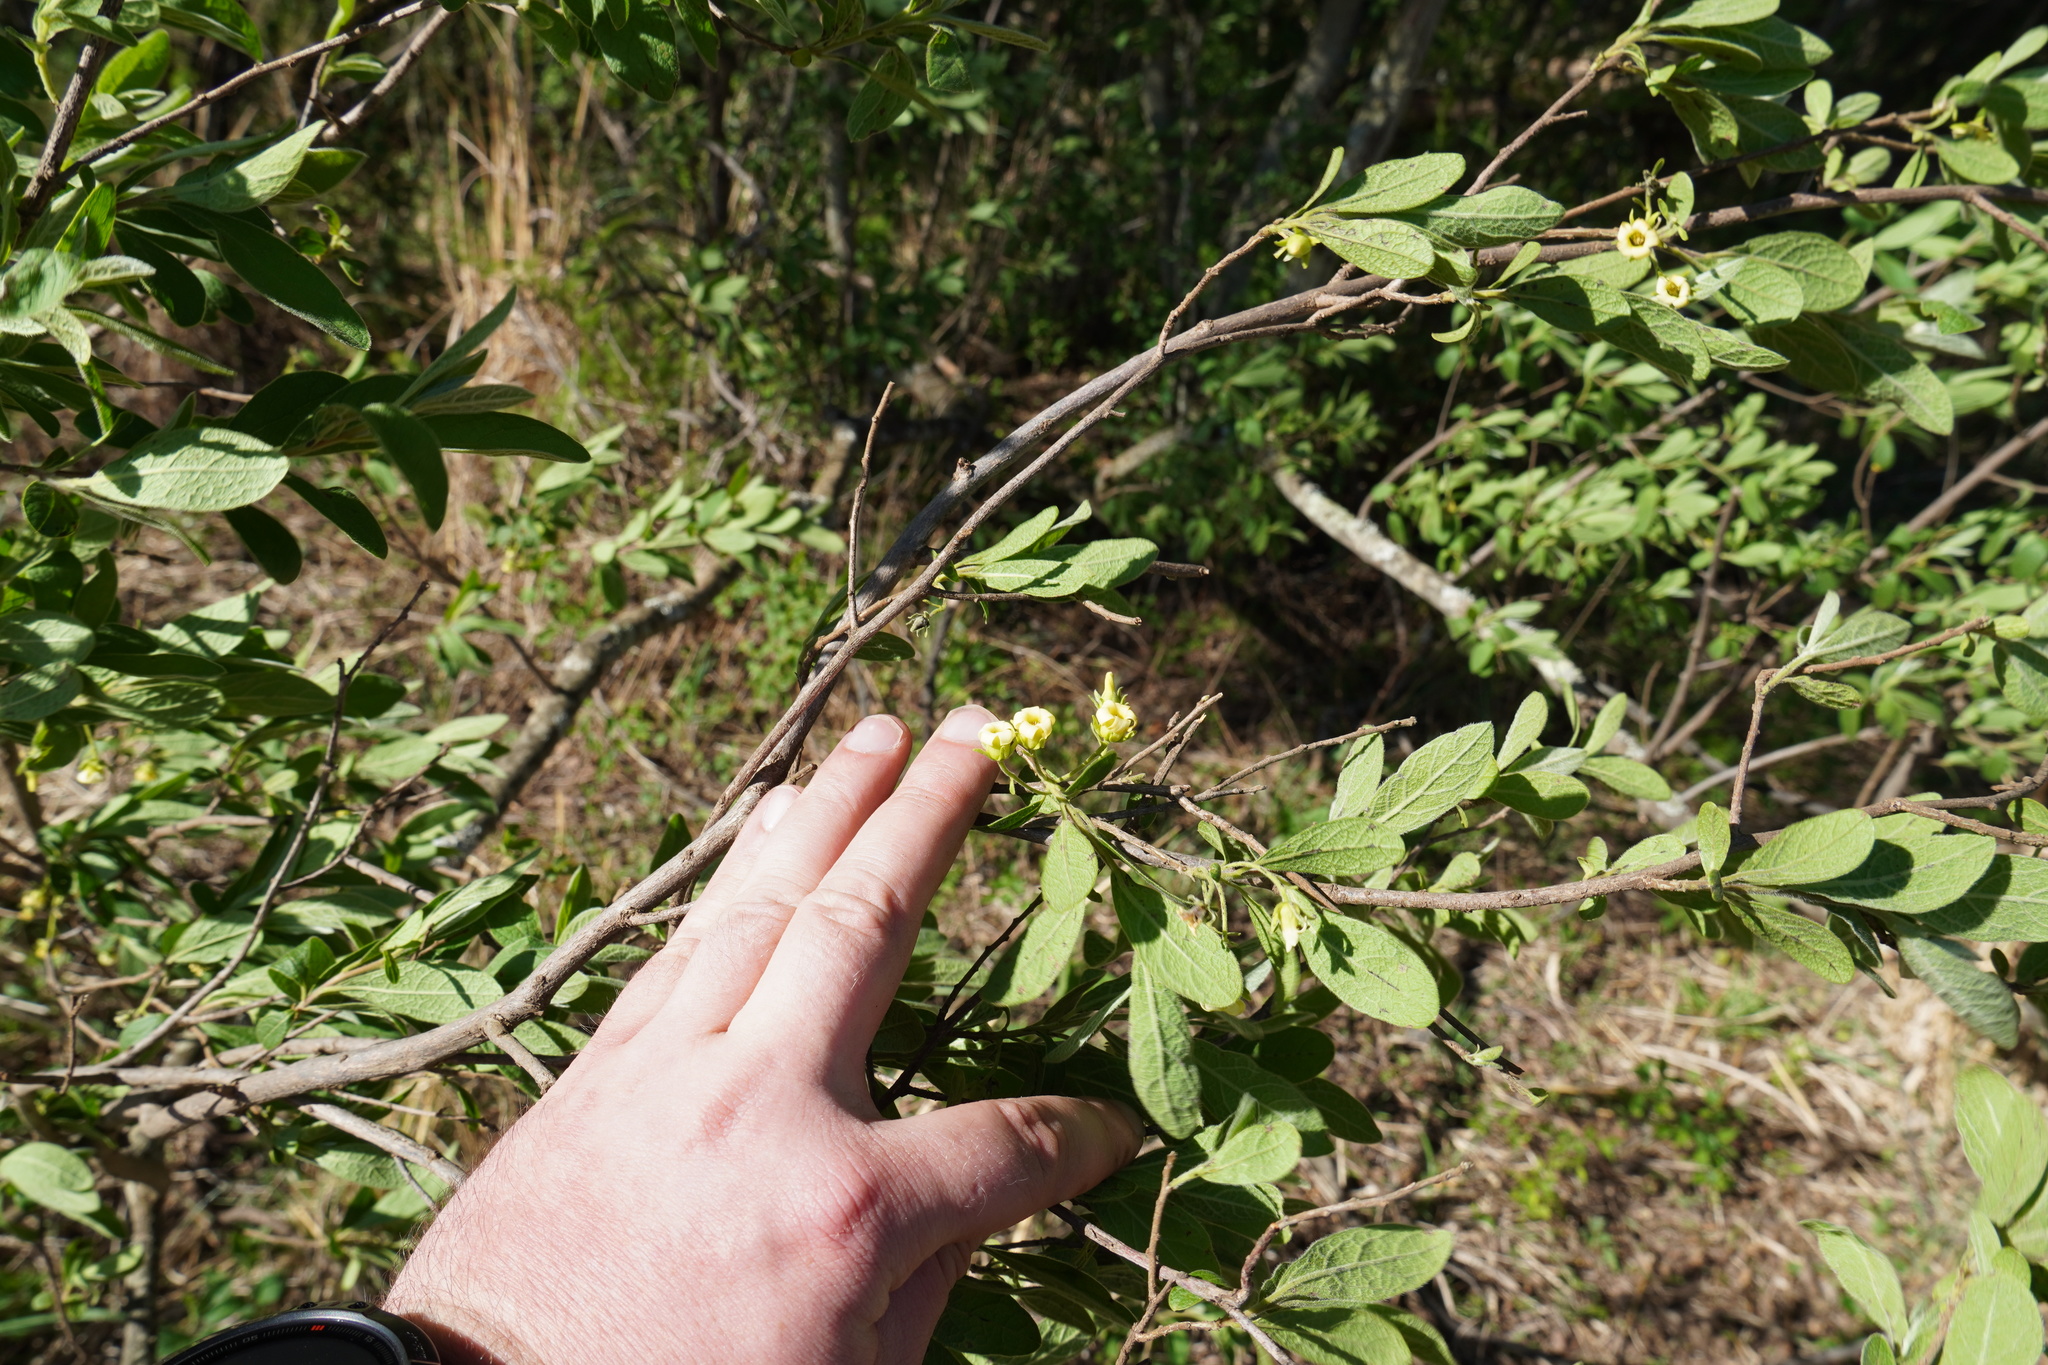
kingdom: Plantae
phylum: Tracheophyta
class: Magnoliopsida
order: Ericales
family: Ebenaceae
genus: Diospyros
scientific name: Diospyros lycioides
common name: Red star apple
